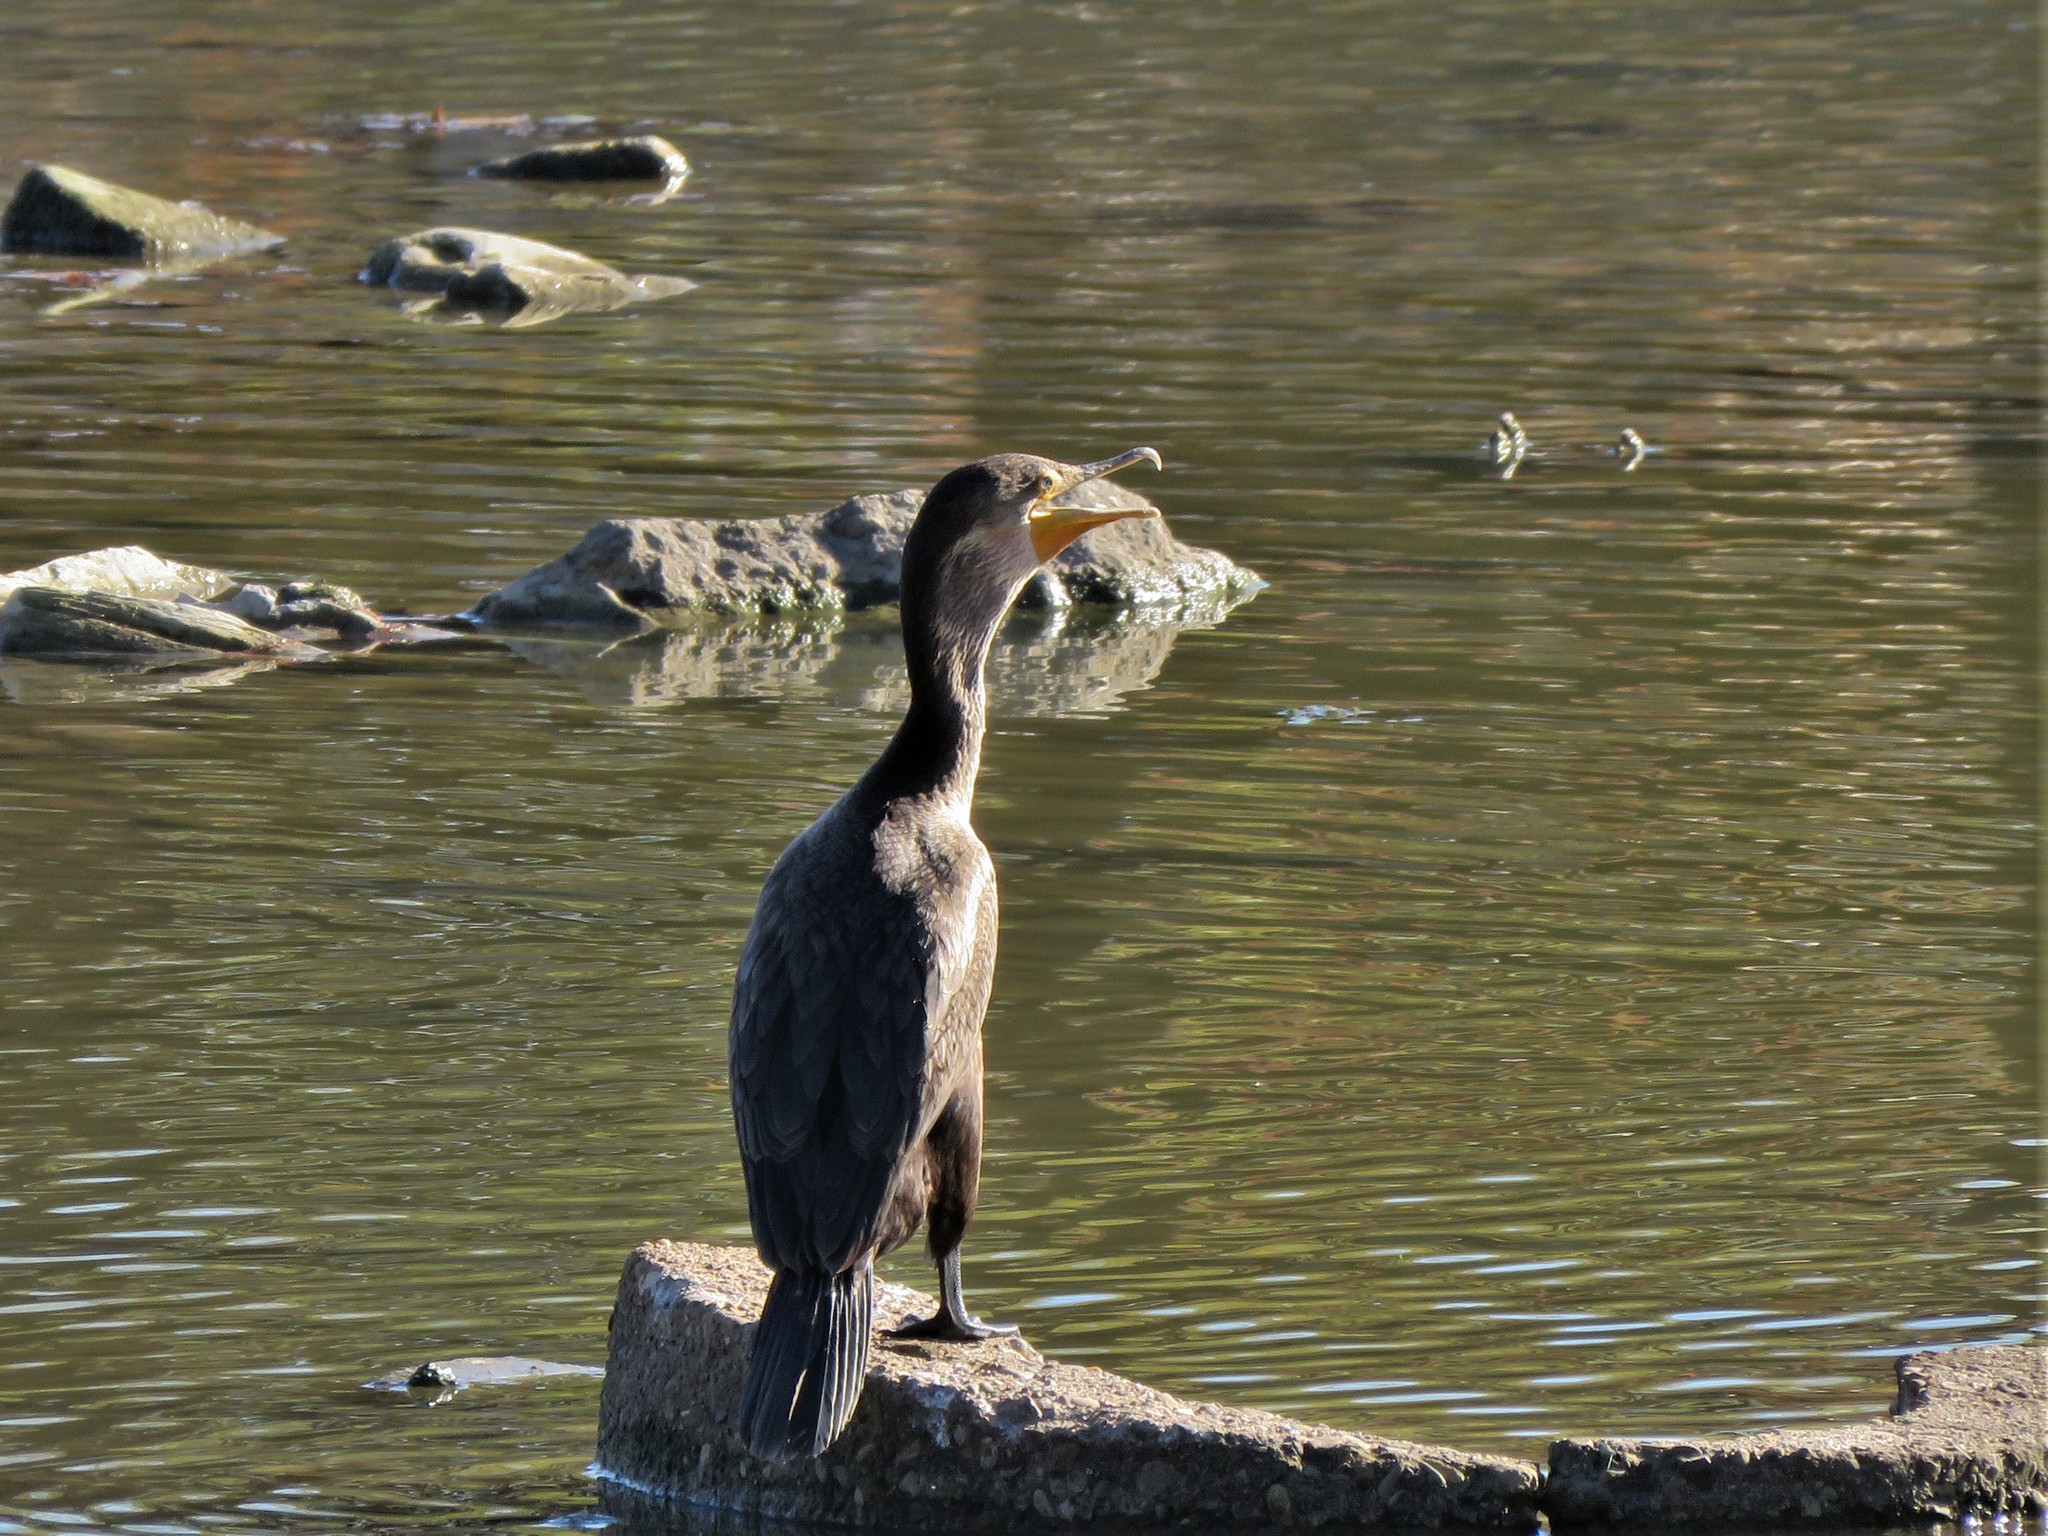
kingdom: Animalia
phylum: Chordata
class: Aves
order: Suliformes
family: Phalacrocoracidae
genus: Phalacrocorax
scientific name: Phalacrocorax auritus
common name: Double-crested cormorant
